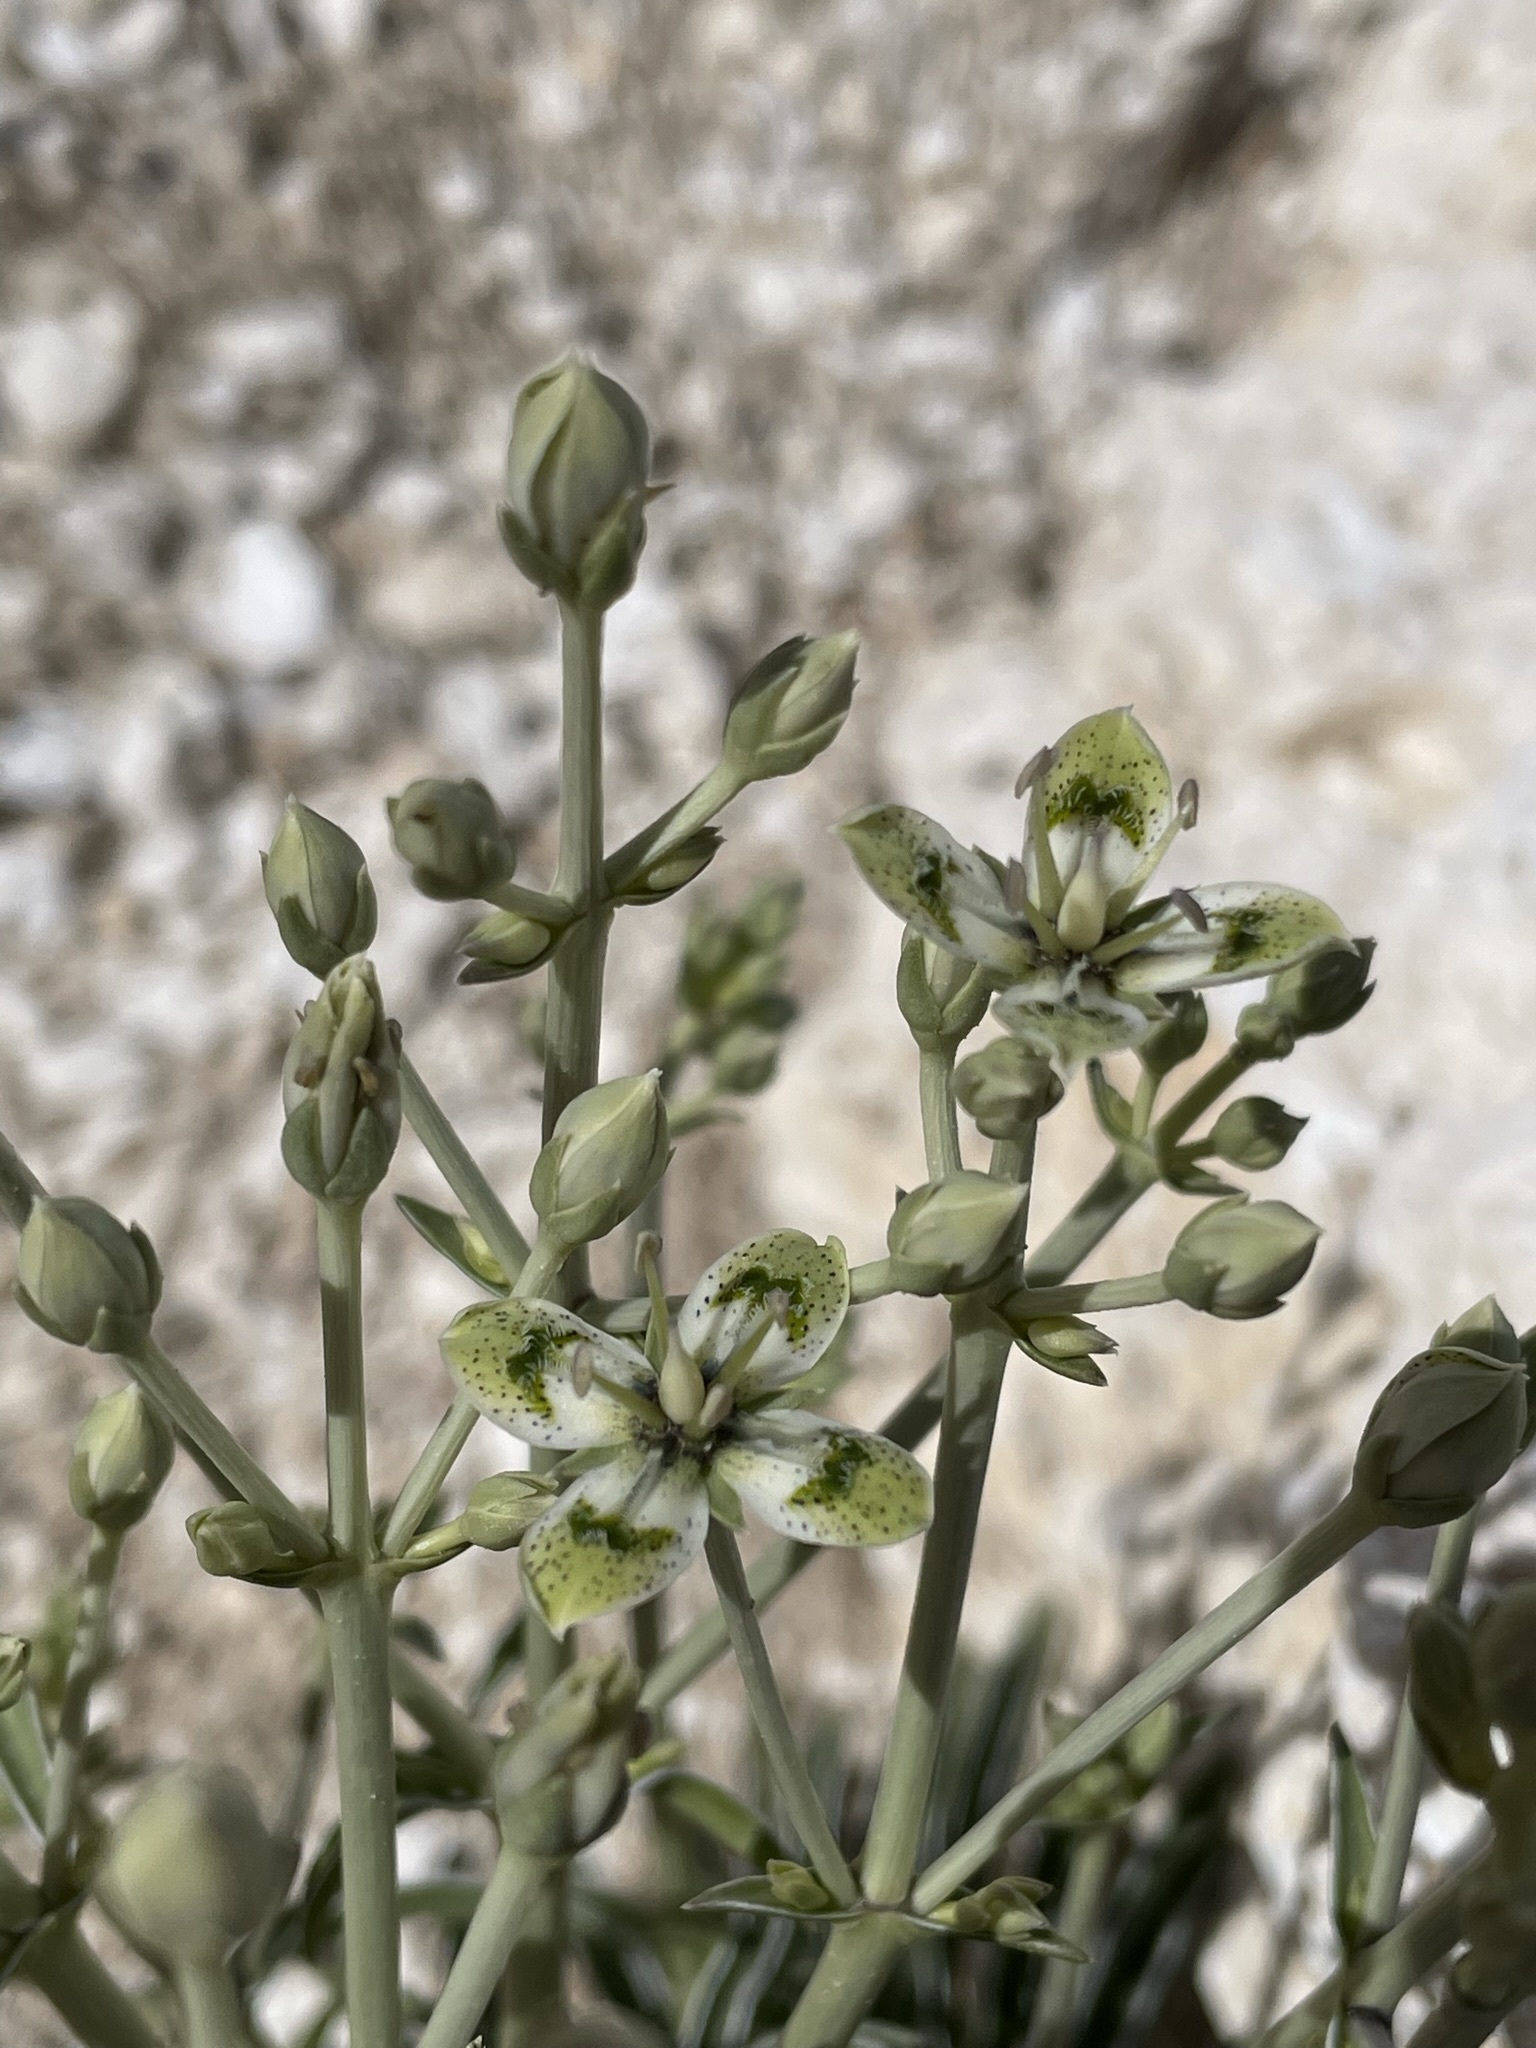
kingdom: Plantae
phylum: Tracheophyta
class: Magnoliopsida
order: Gentianales
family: Gentianaceae
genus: Frasera
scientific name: Frasera albomarginata
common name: Desert frasera
